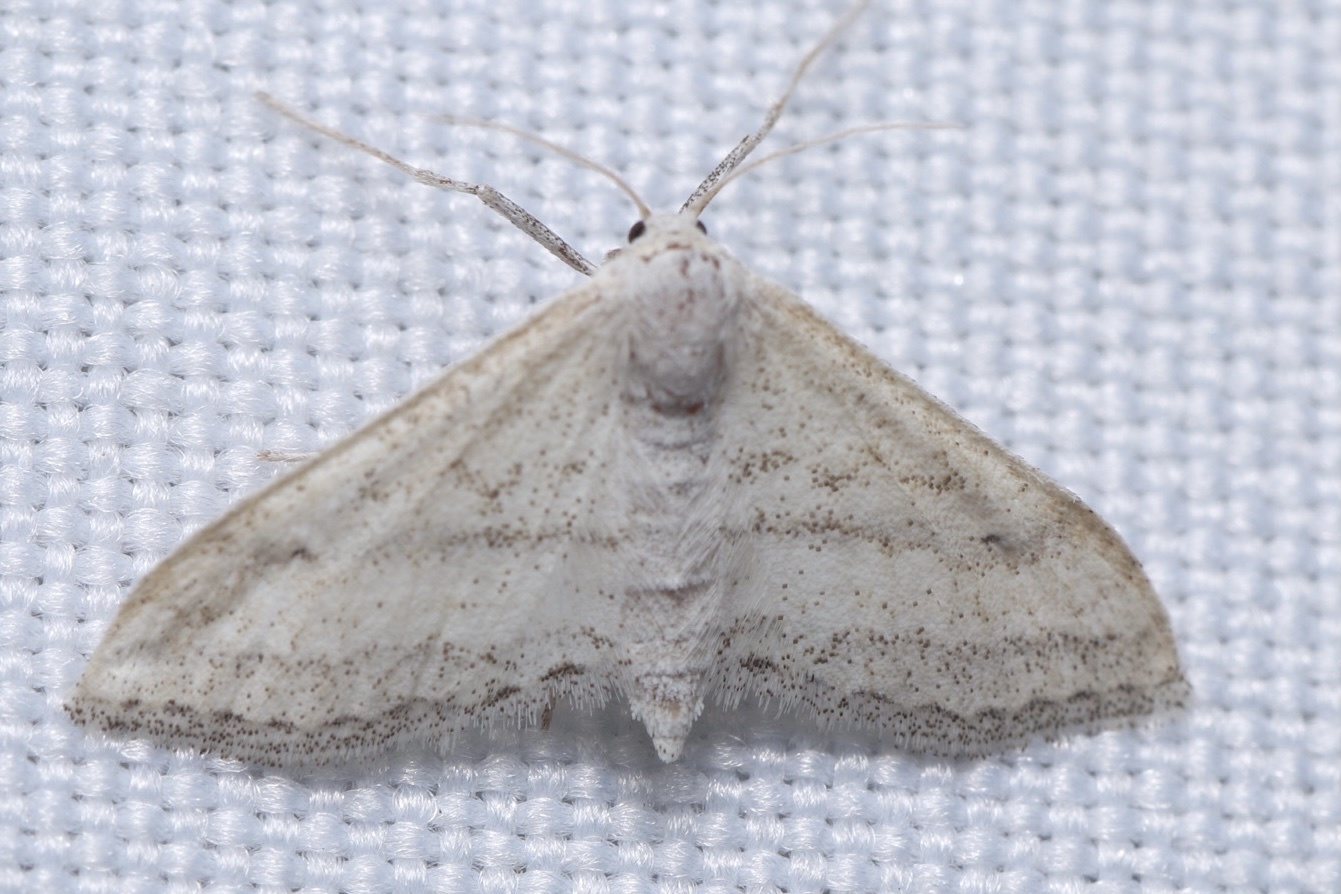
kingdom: Animalia
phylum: Arthropoda
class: Insecta
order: Lepidoptera
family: Geometridae
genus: Lobocleta
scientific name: Lobocleta lanceolata
